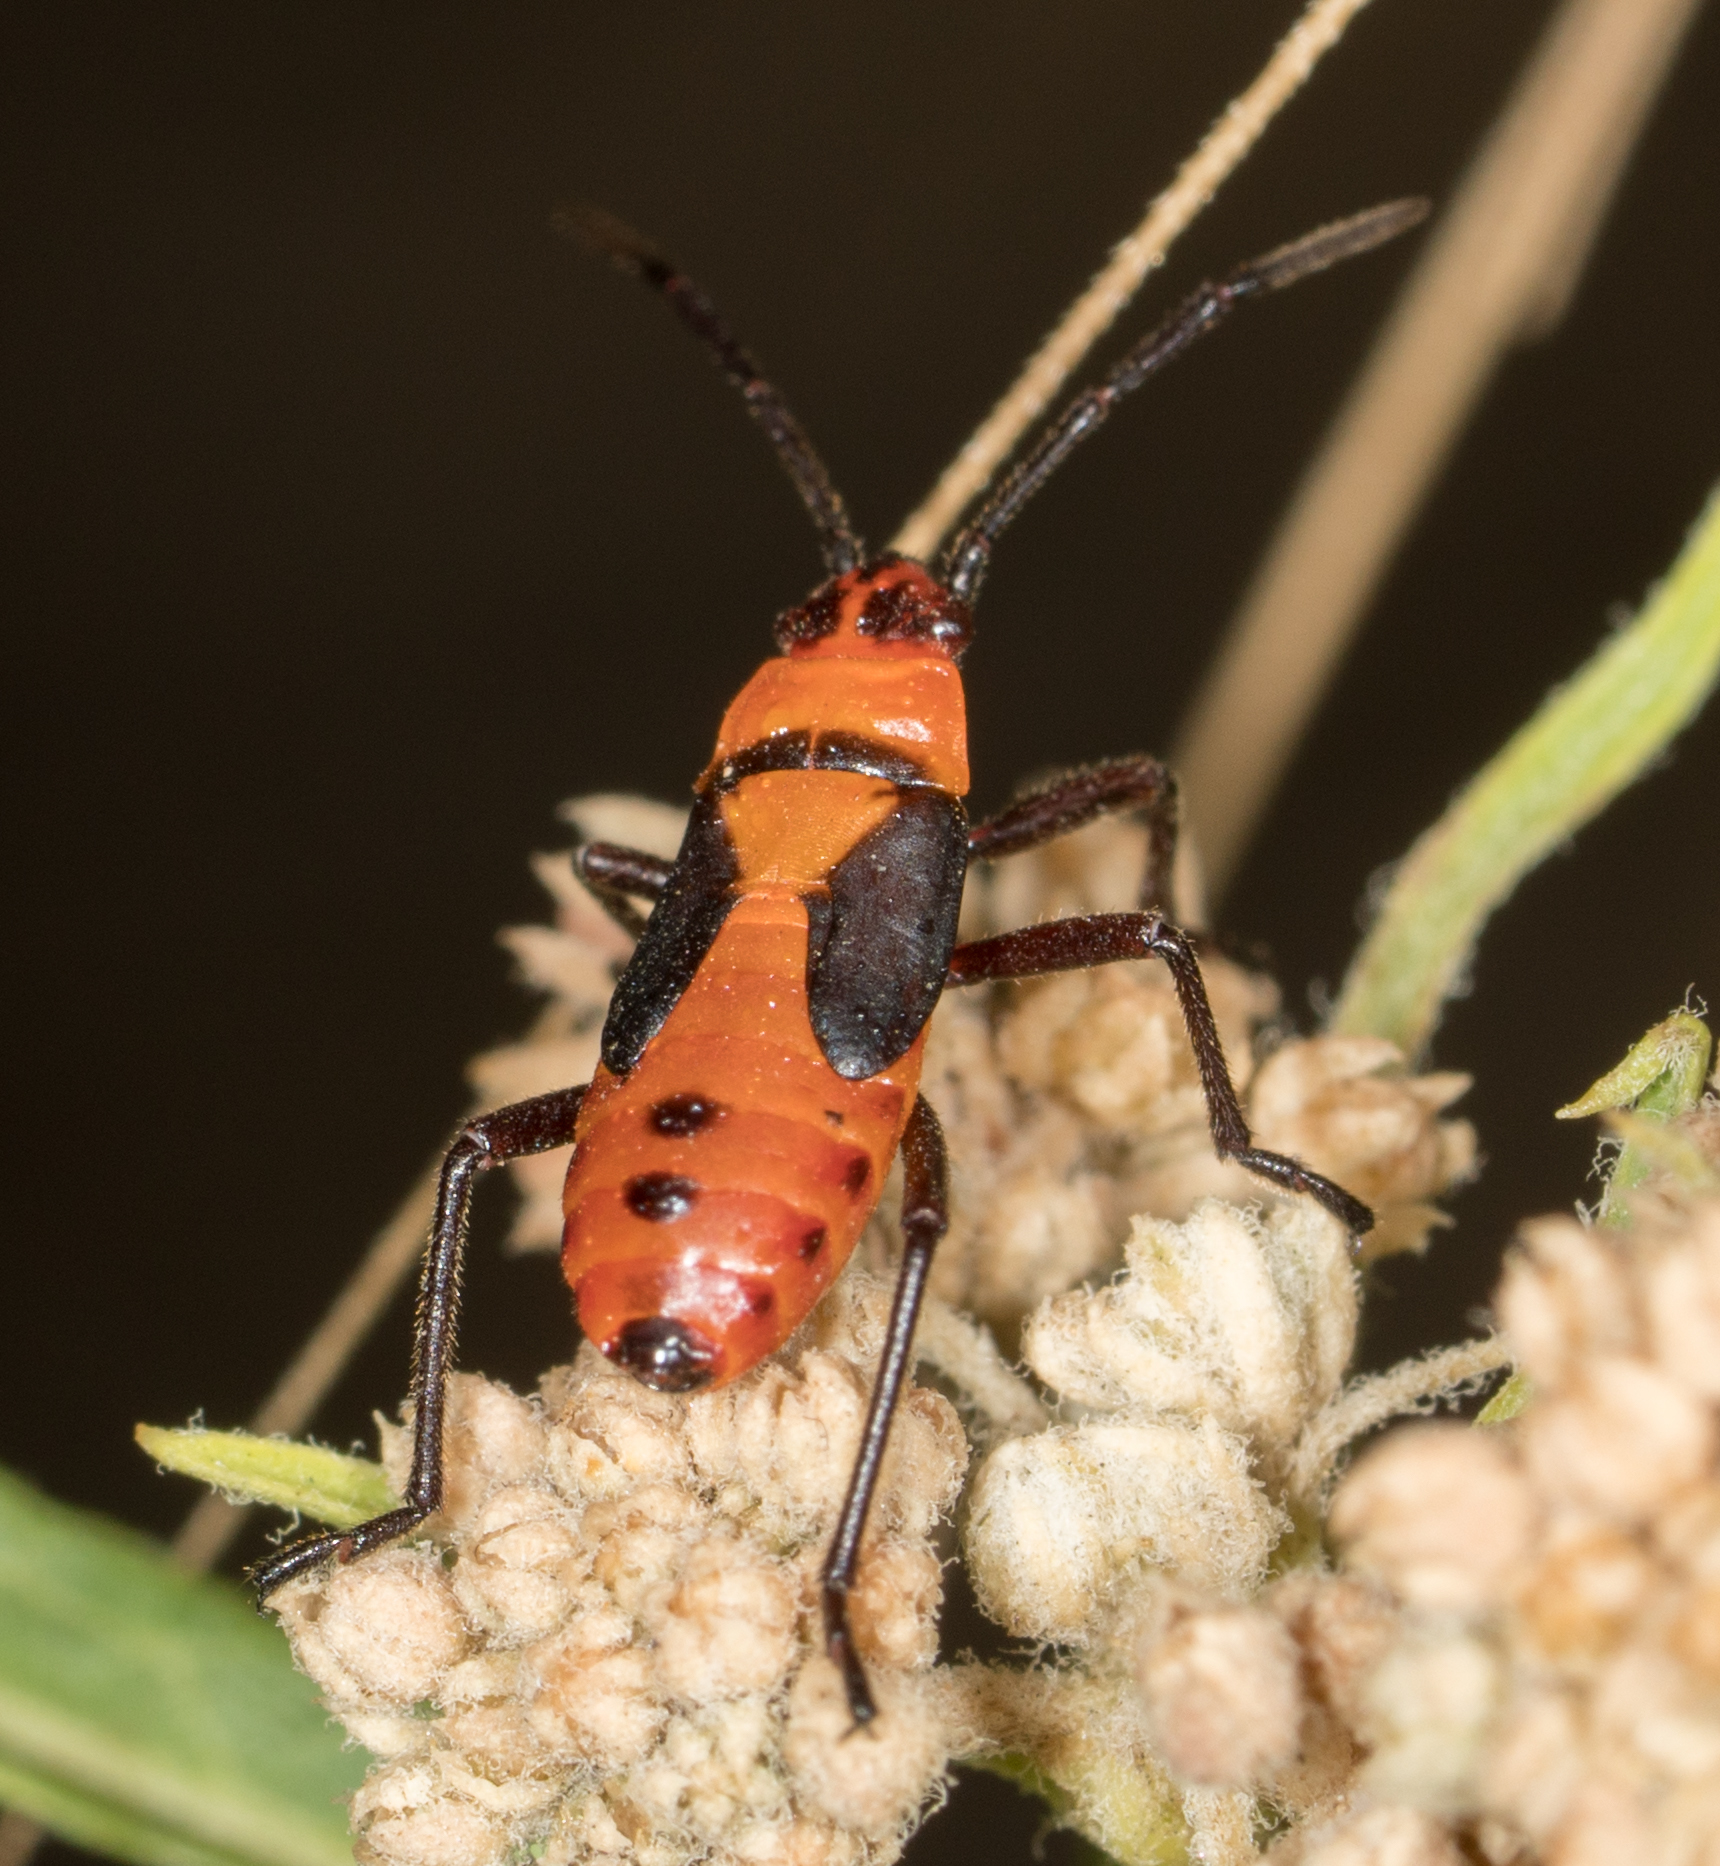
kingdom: Animalia
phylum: Arthropoda
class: Insecta
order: Hemiptera
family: Lygaeidae
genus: Oncopeltus
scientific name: Oncopeltus fasciatus
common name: Large milkweed bug
